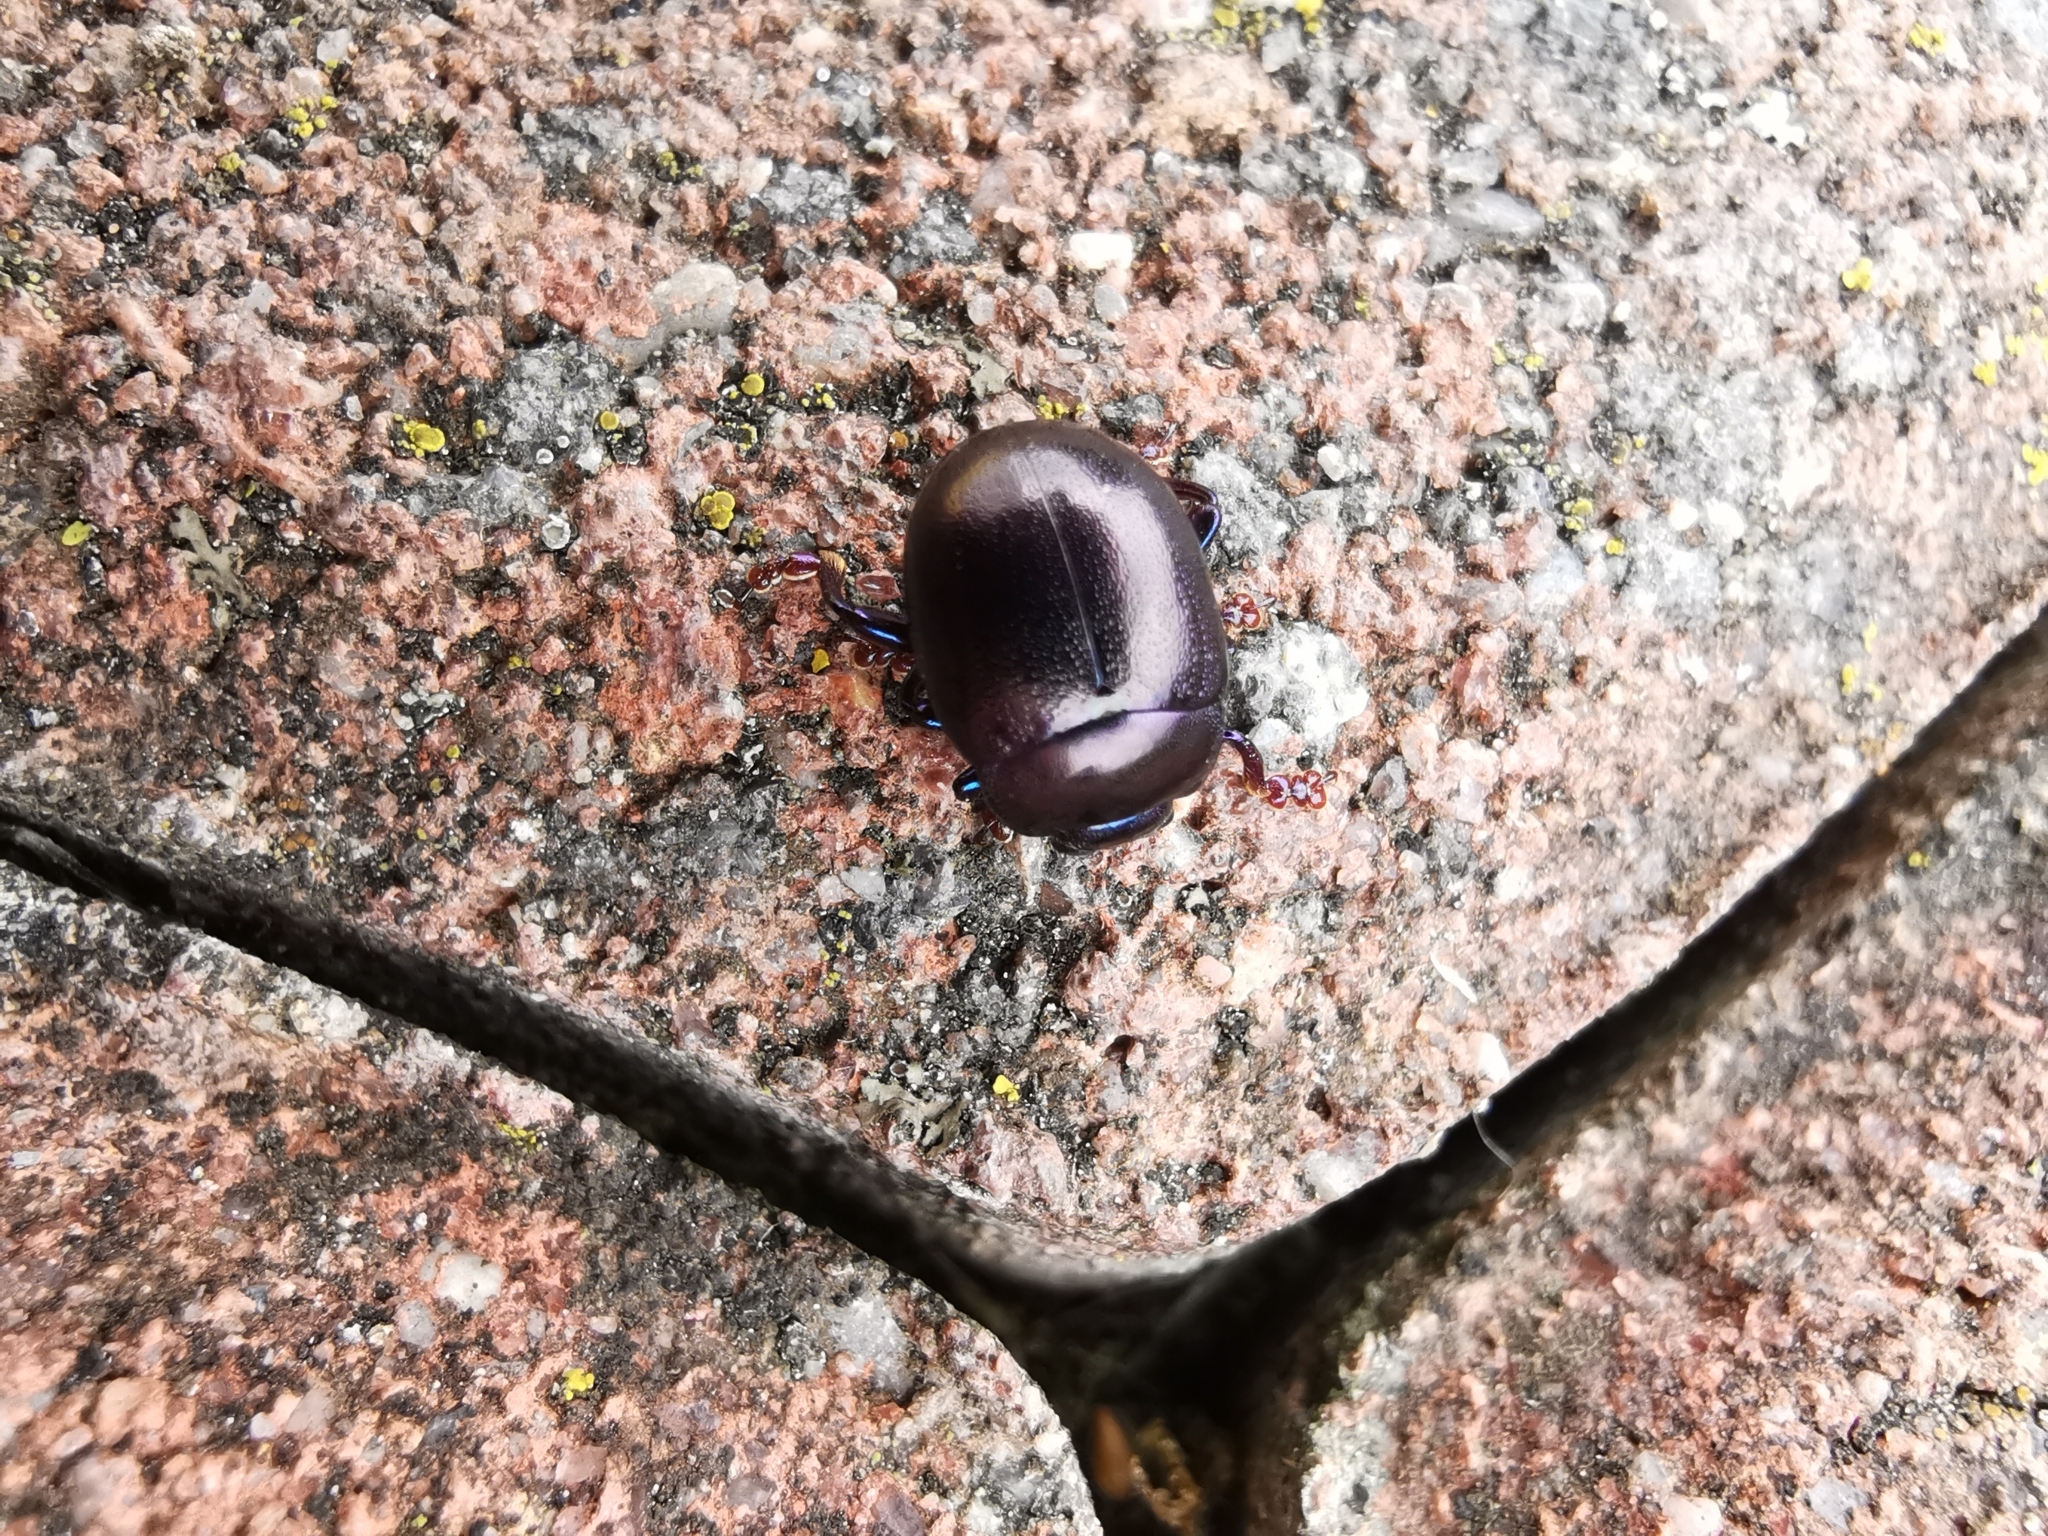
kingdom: Animalia
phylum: Arthropoda
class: Insecta
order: Coleoptera
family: Chrysomelidae
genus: Chrysolina
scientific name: Chrysolina sturmi
